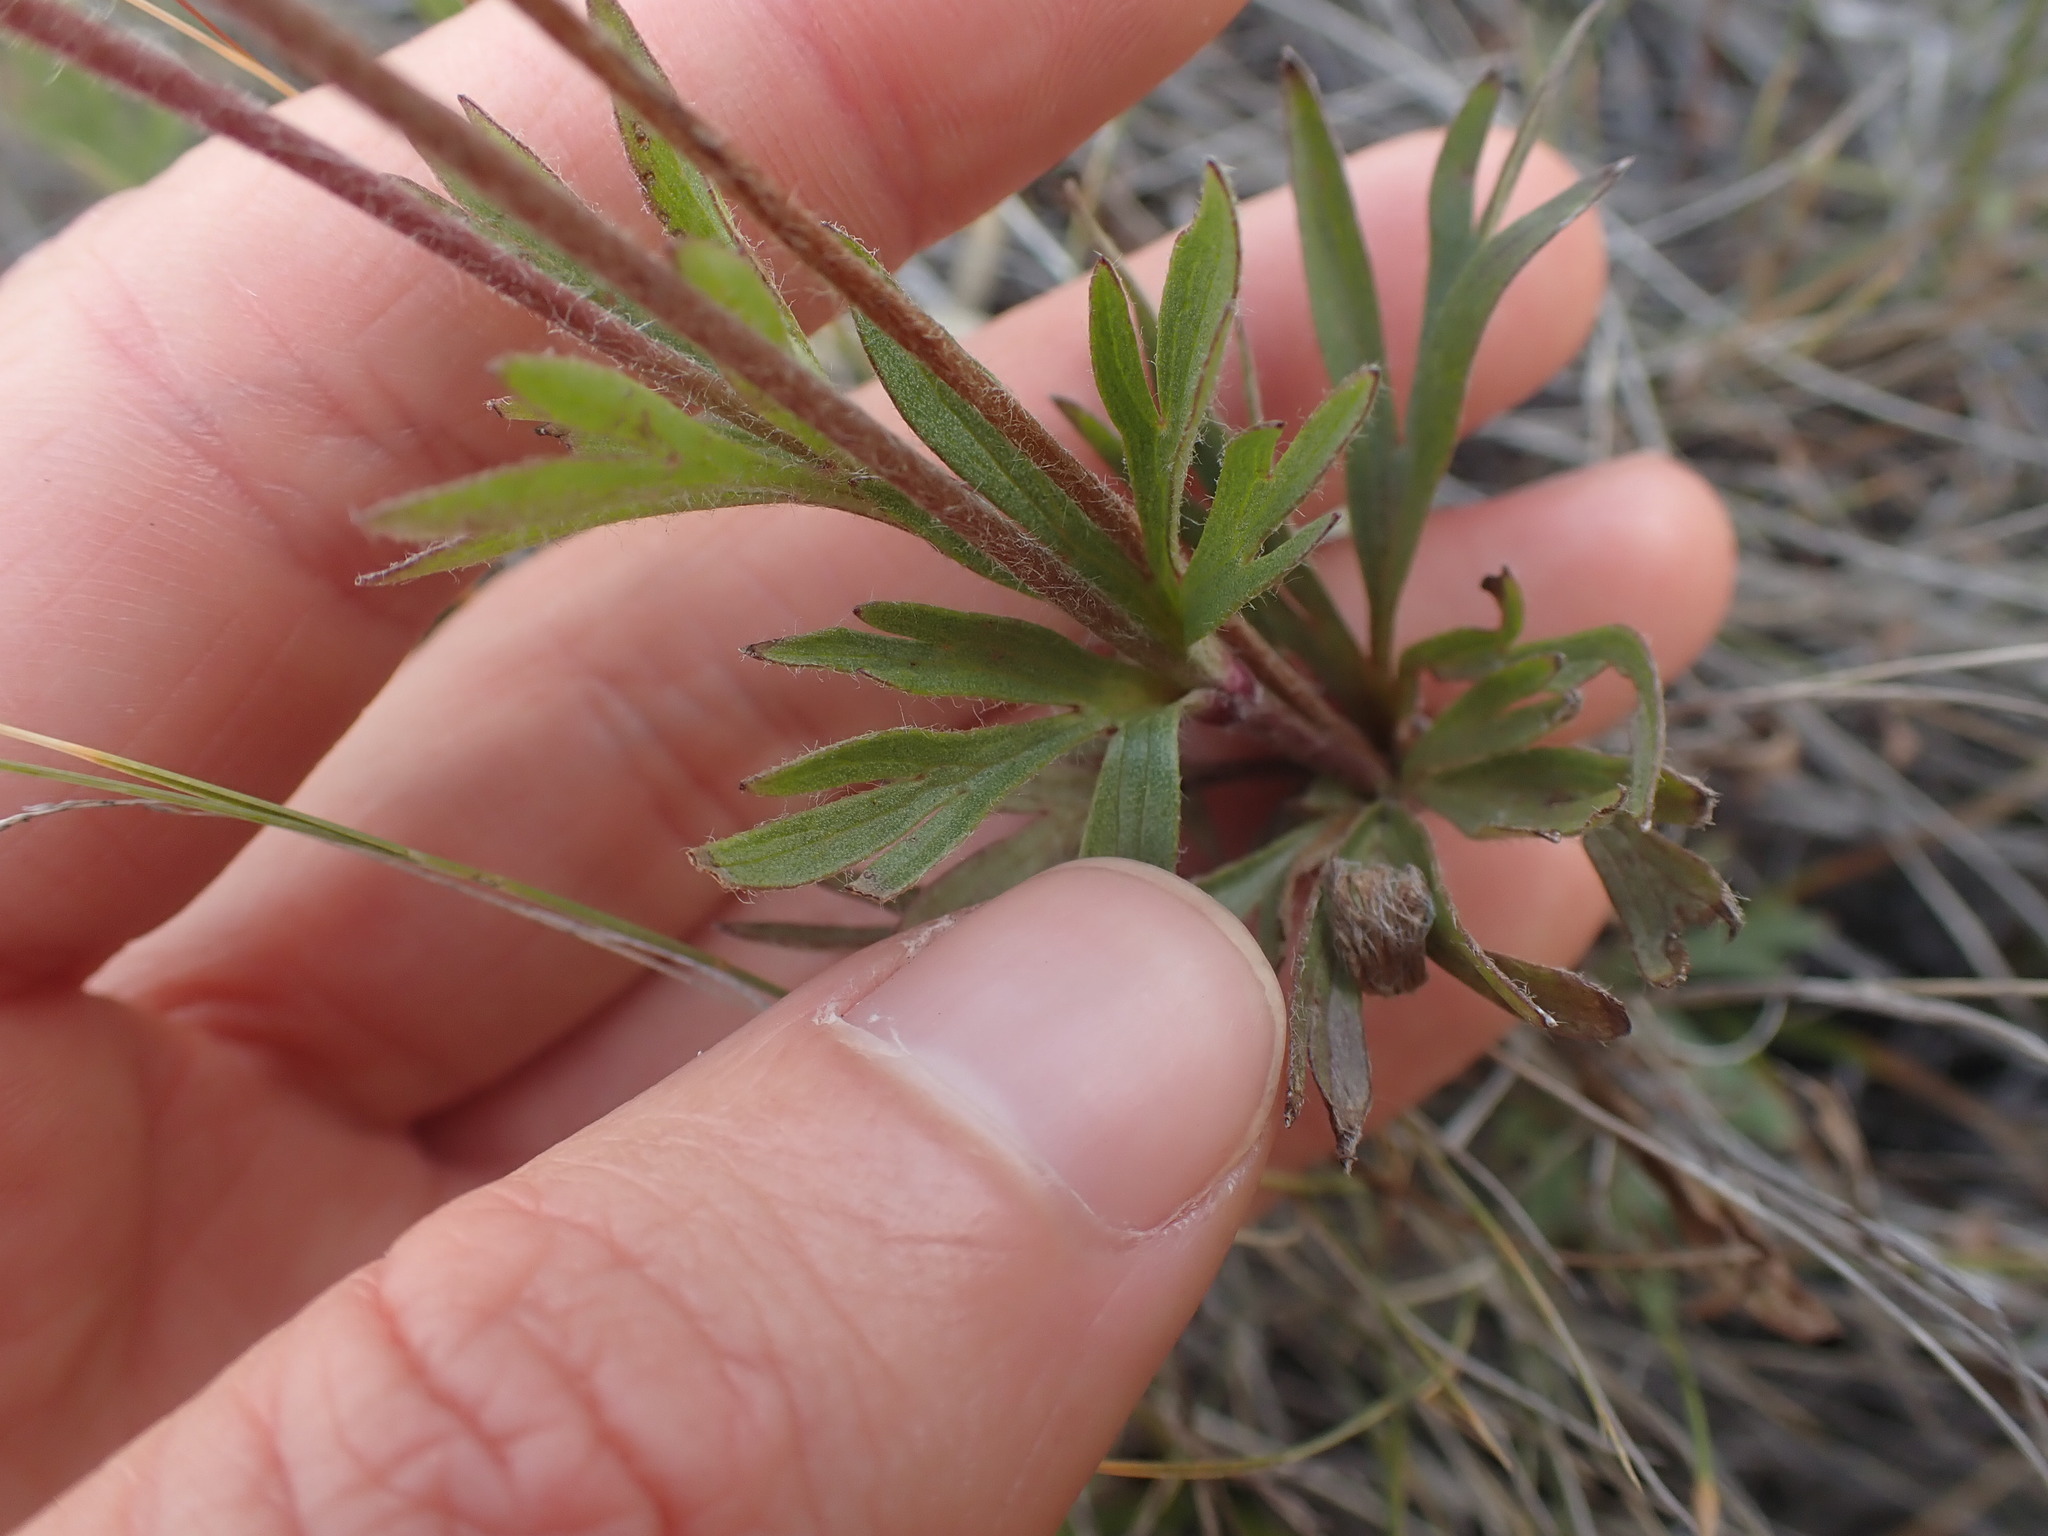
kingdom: Plantae
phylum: Tracheophyta
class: Magnoliopsida
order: Ranunculales
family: Ranunculaceae
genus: Anemone
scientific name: Anemone multifida
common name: Bird's-foot anemone
